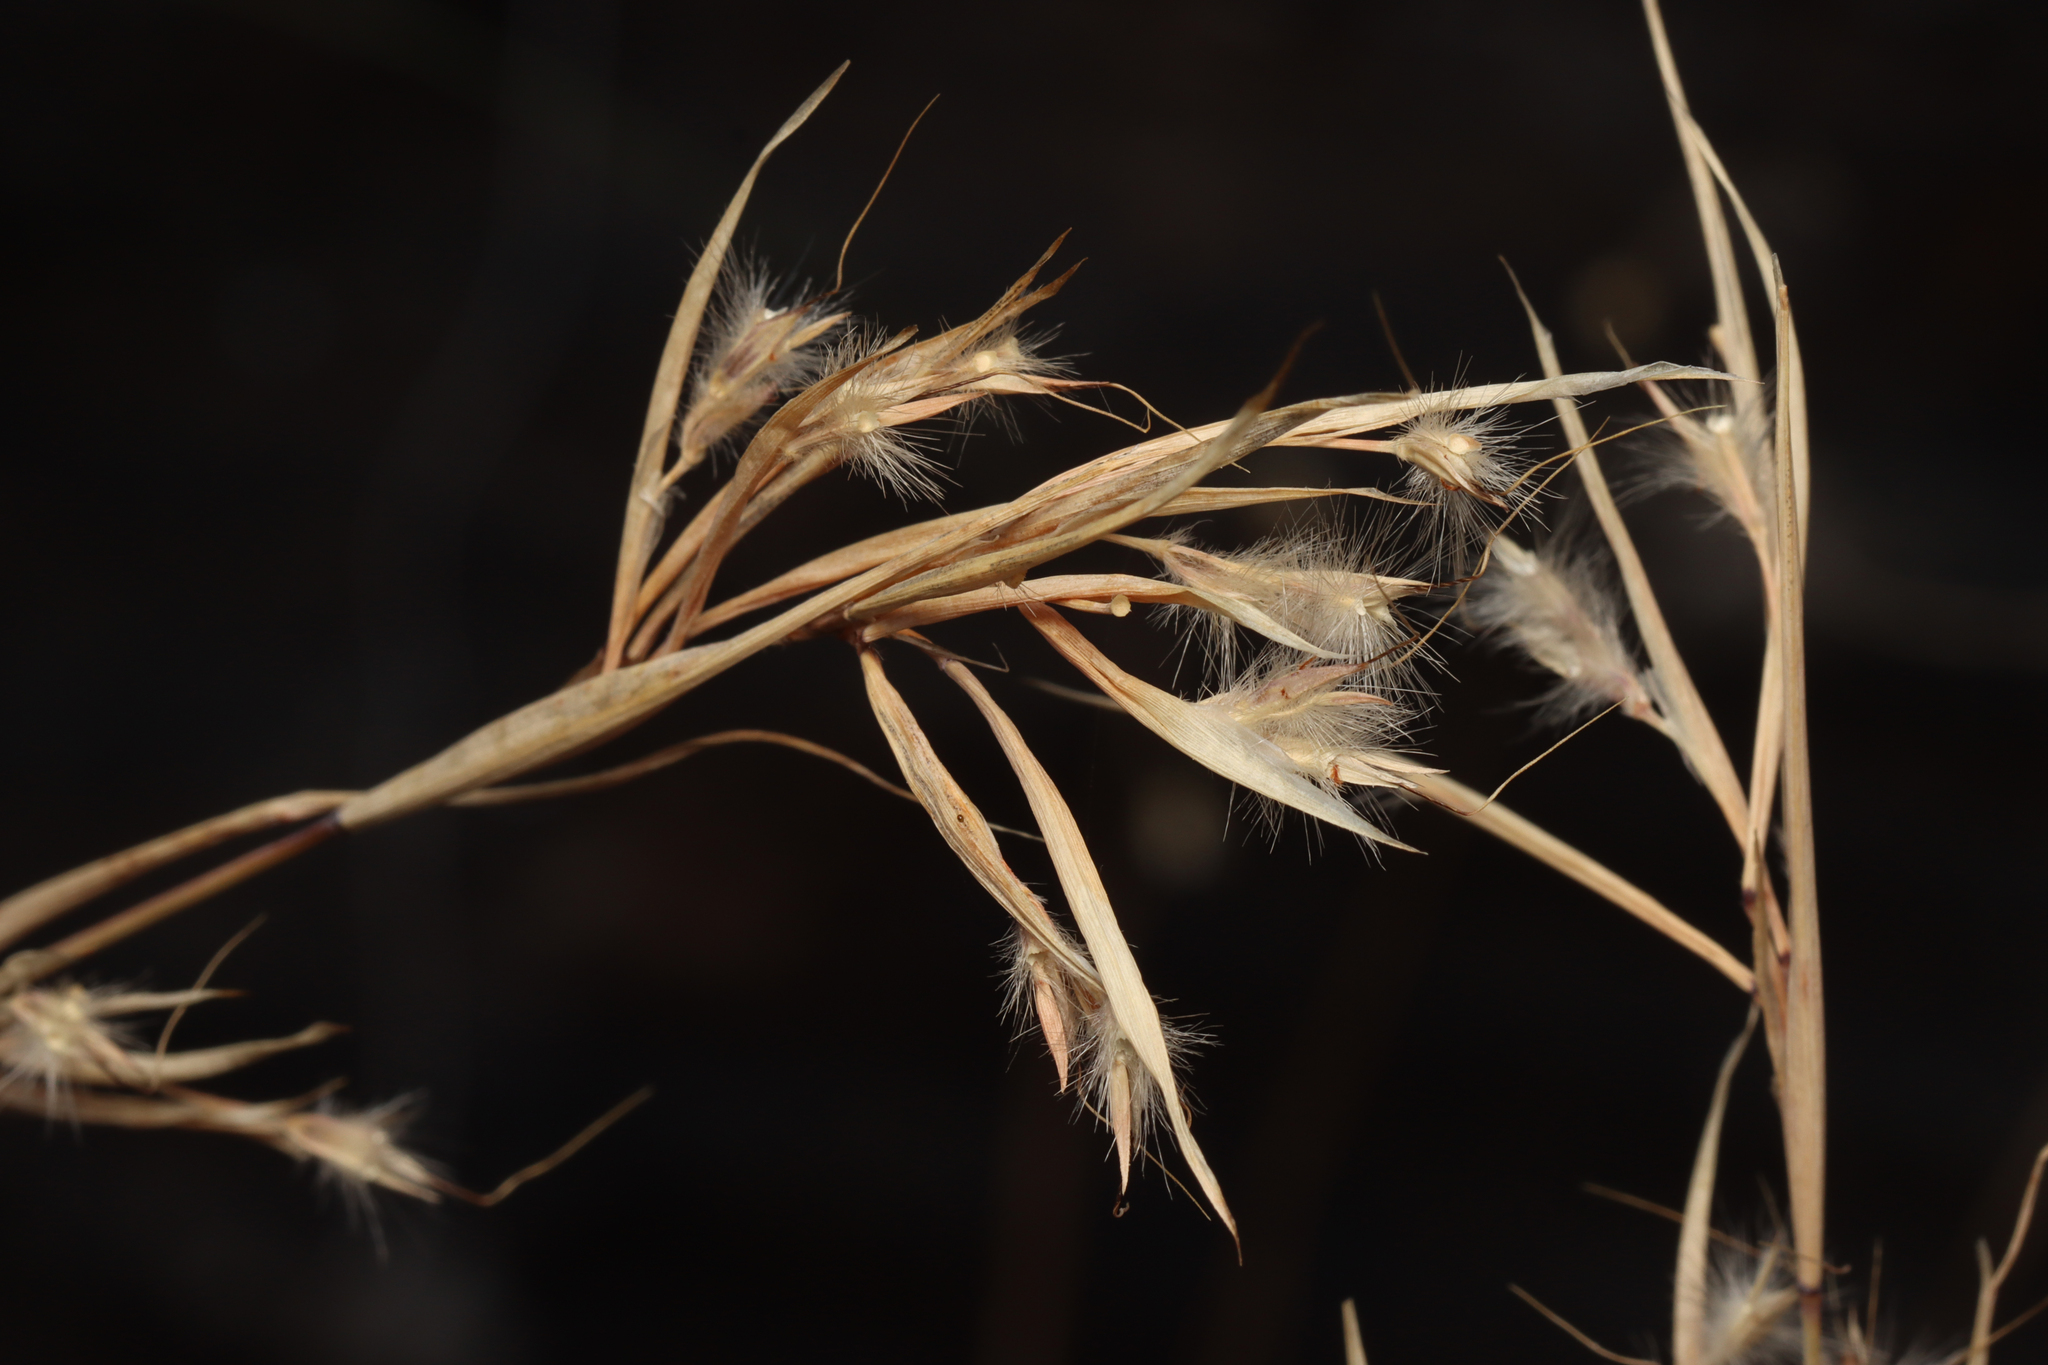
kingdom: Plantae
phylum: Tracheophyta
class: Liliopsida
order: Poales
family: Poaceae
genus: Cymbopogon
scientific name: Cymbopogon ambiguus
